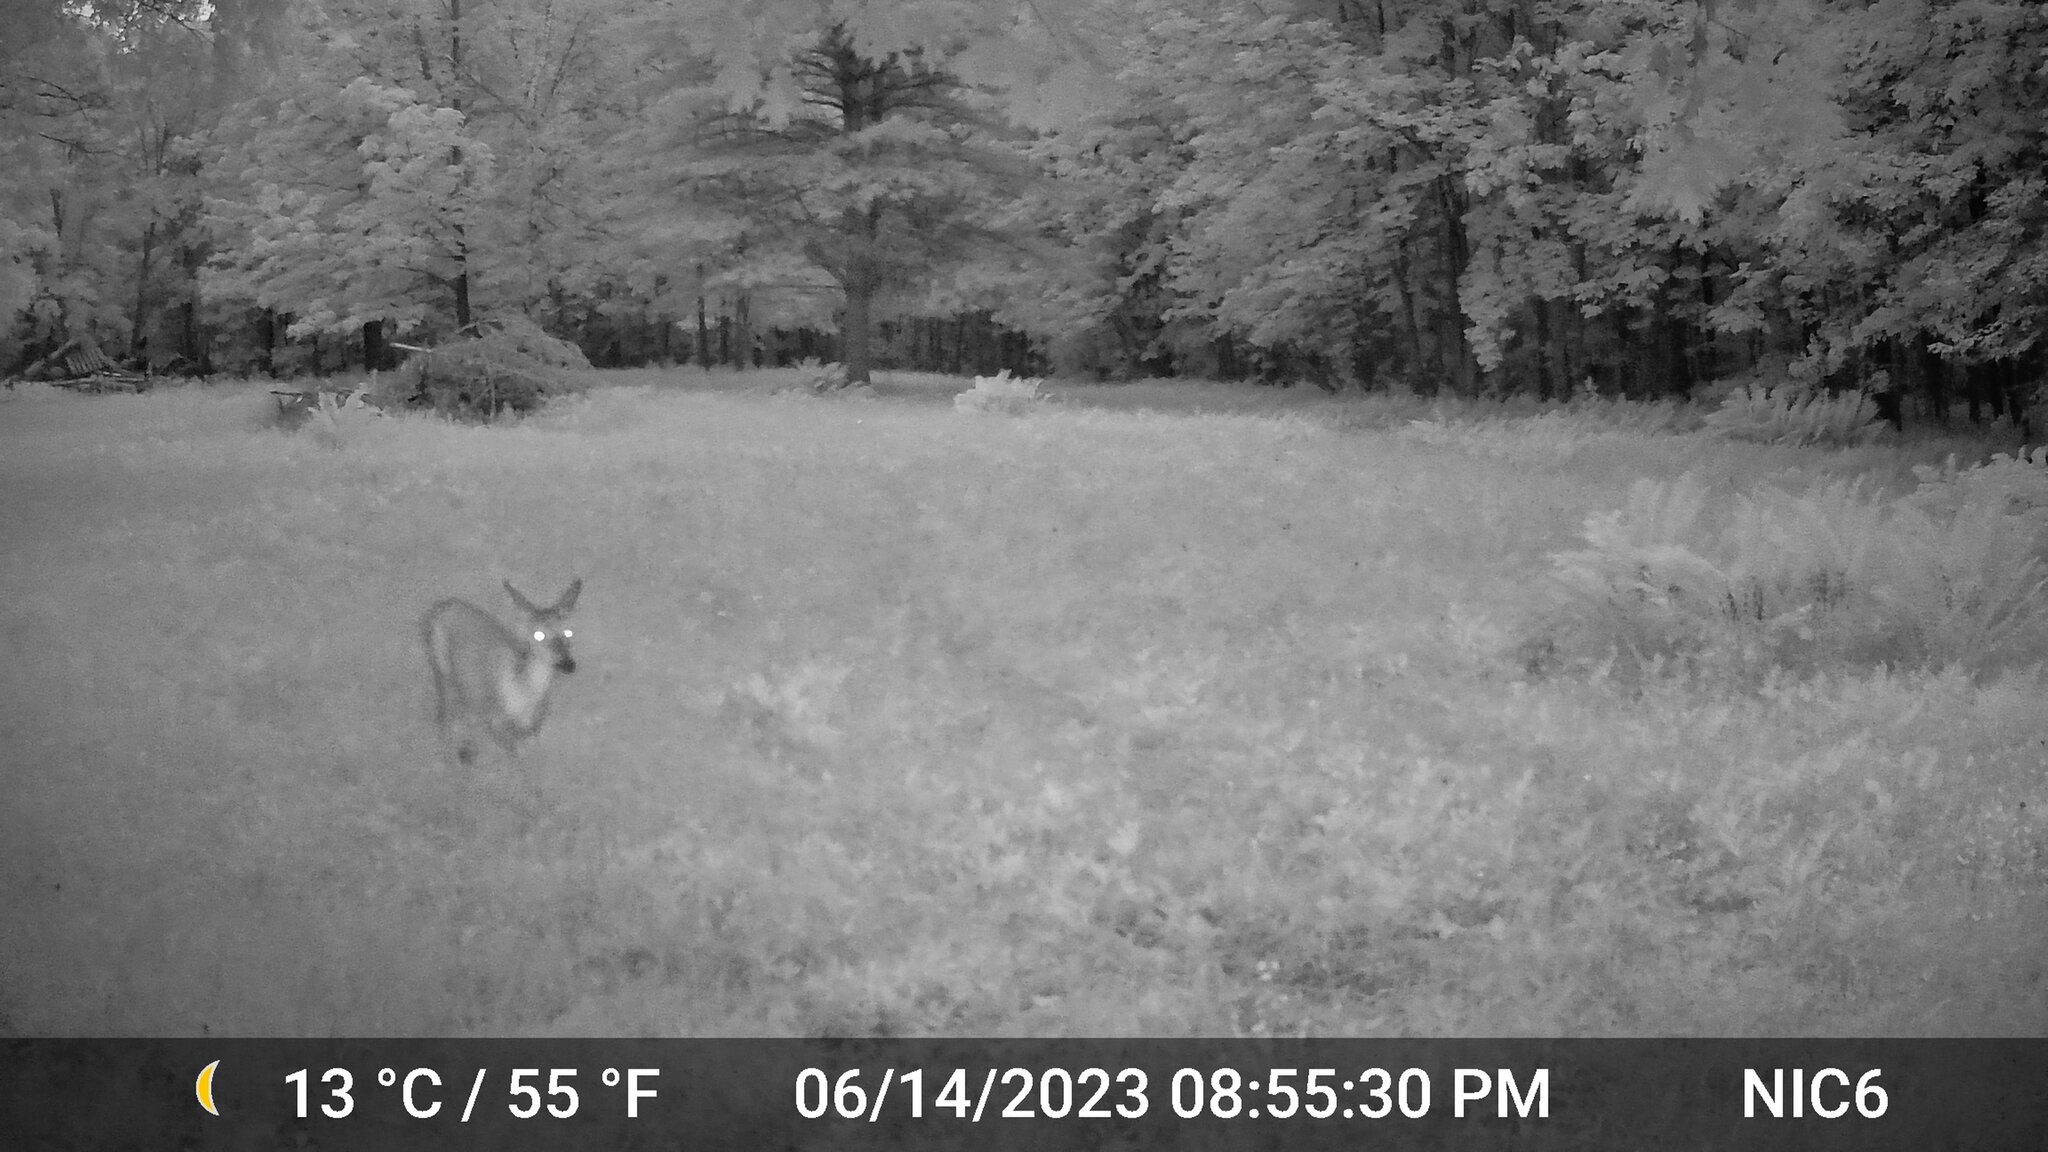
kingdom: Animalia
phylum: Chordata
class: Mammalia
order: Artiodactyla
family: Cervidae
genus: Odocoileus
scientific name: Odocoileus virginianus
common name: White-tailed deer
